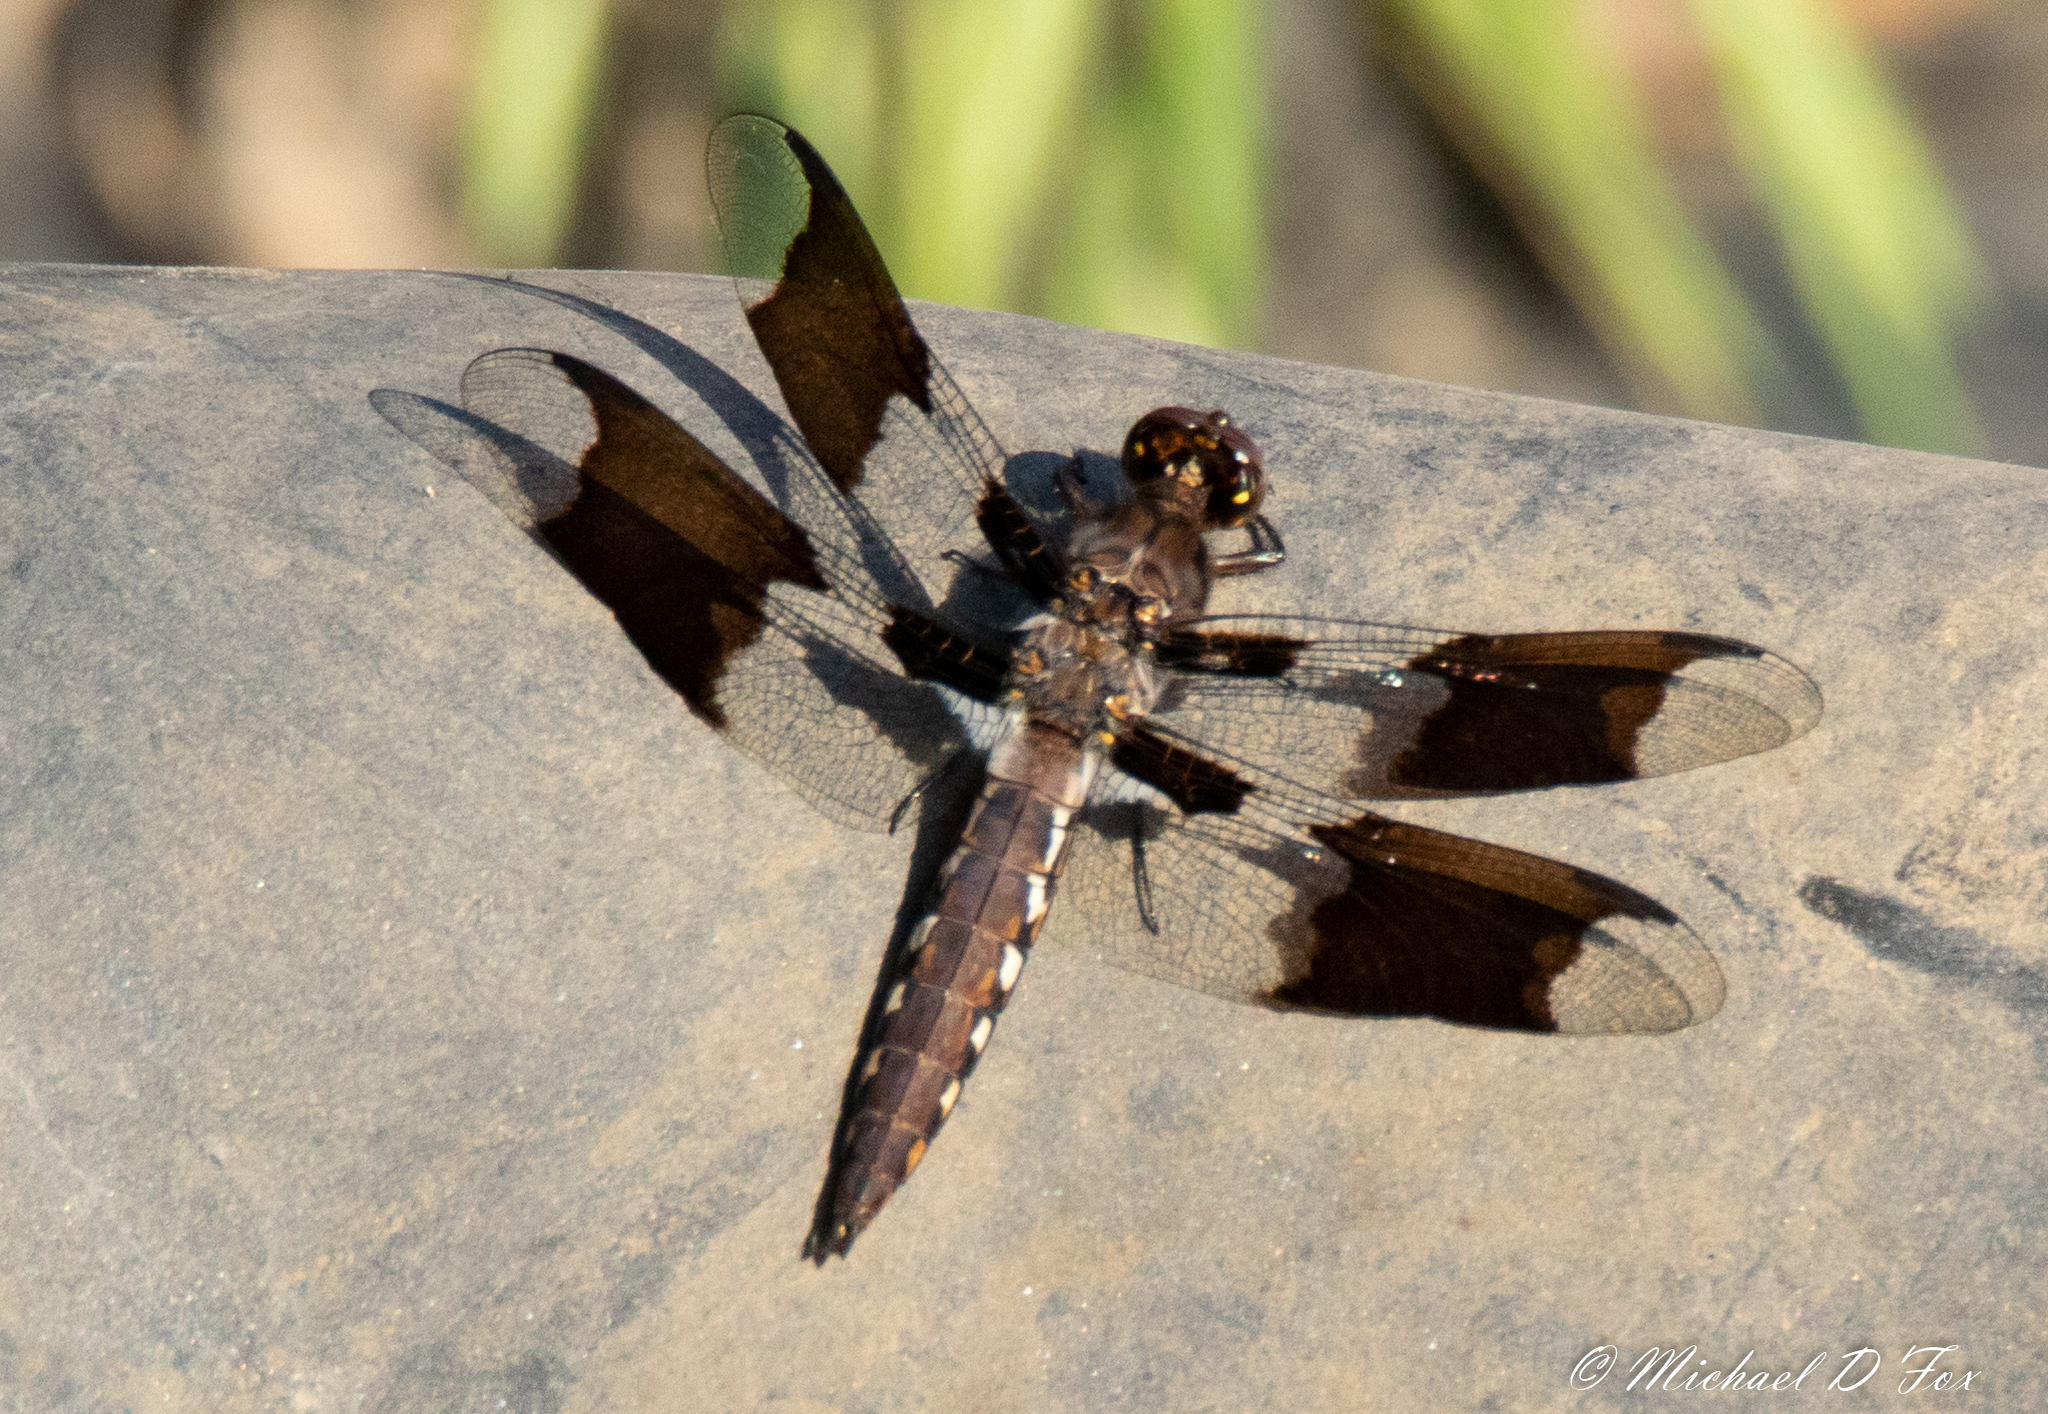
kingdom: Animalia
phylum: Arthropoda
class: Insecta
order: Odonata
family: Libellulidae
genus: Plathemis
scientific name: Plathemis lydia
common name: Common whitetail
